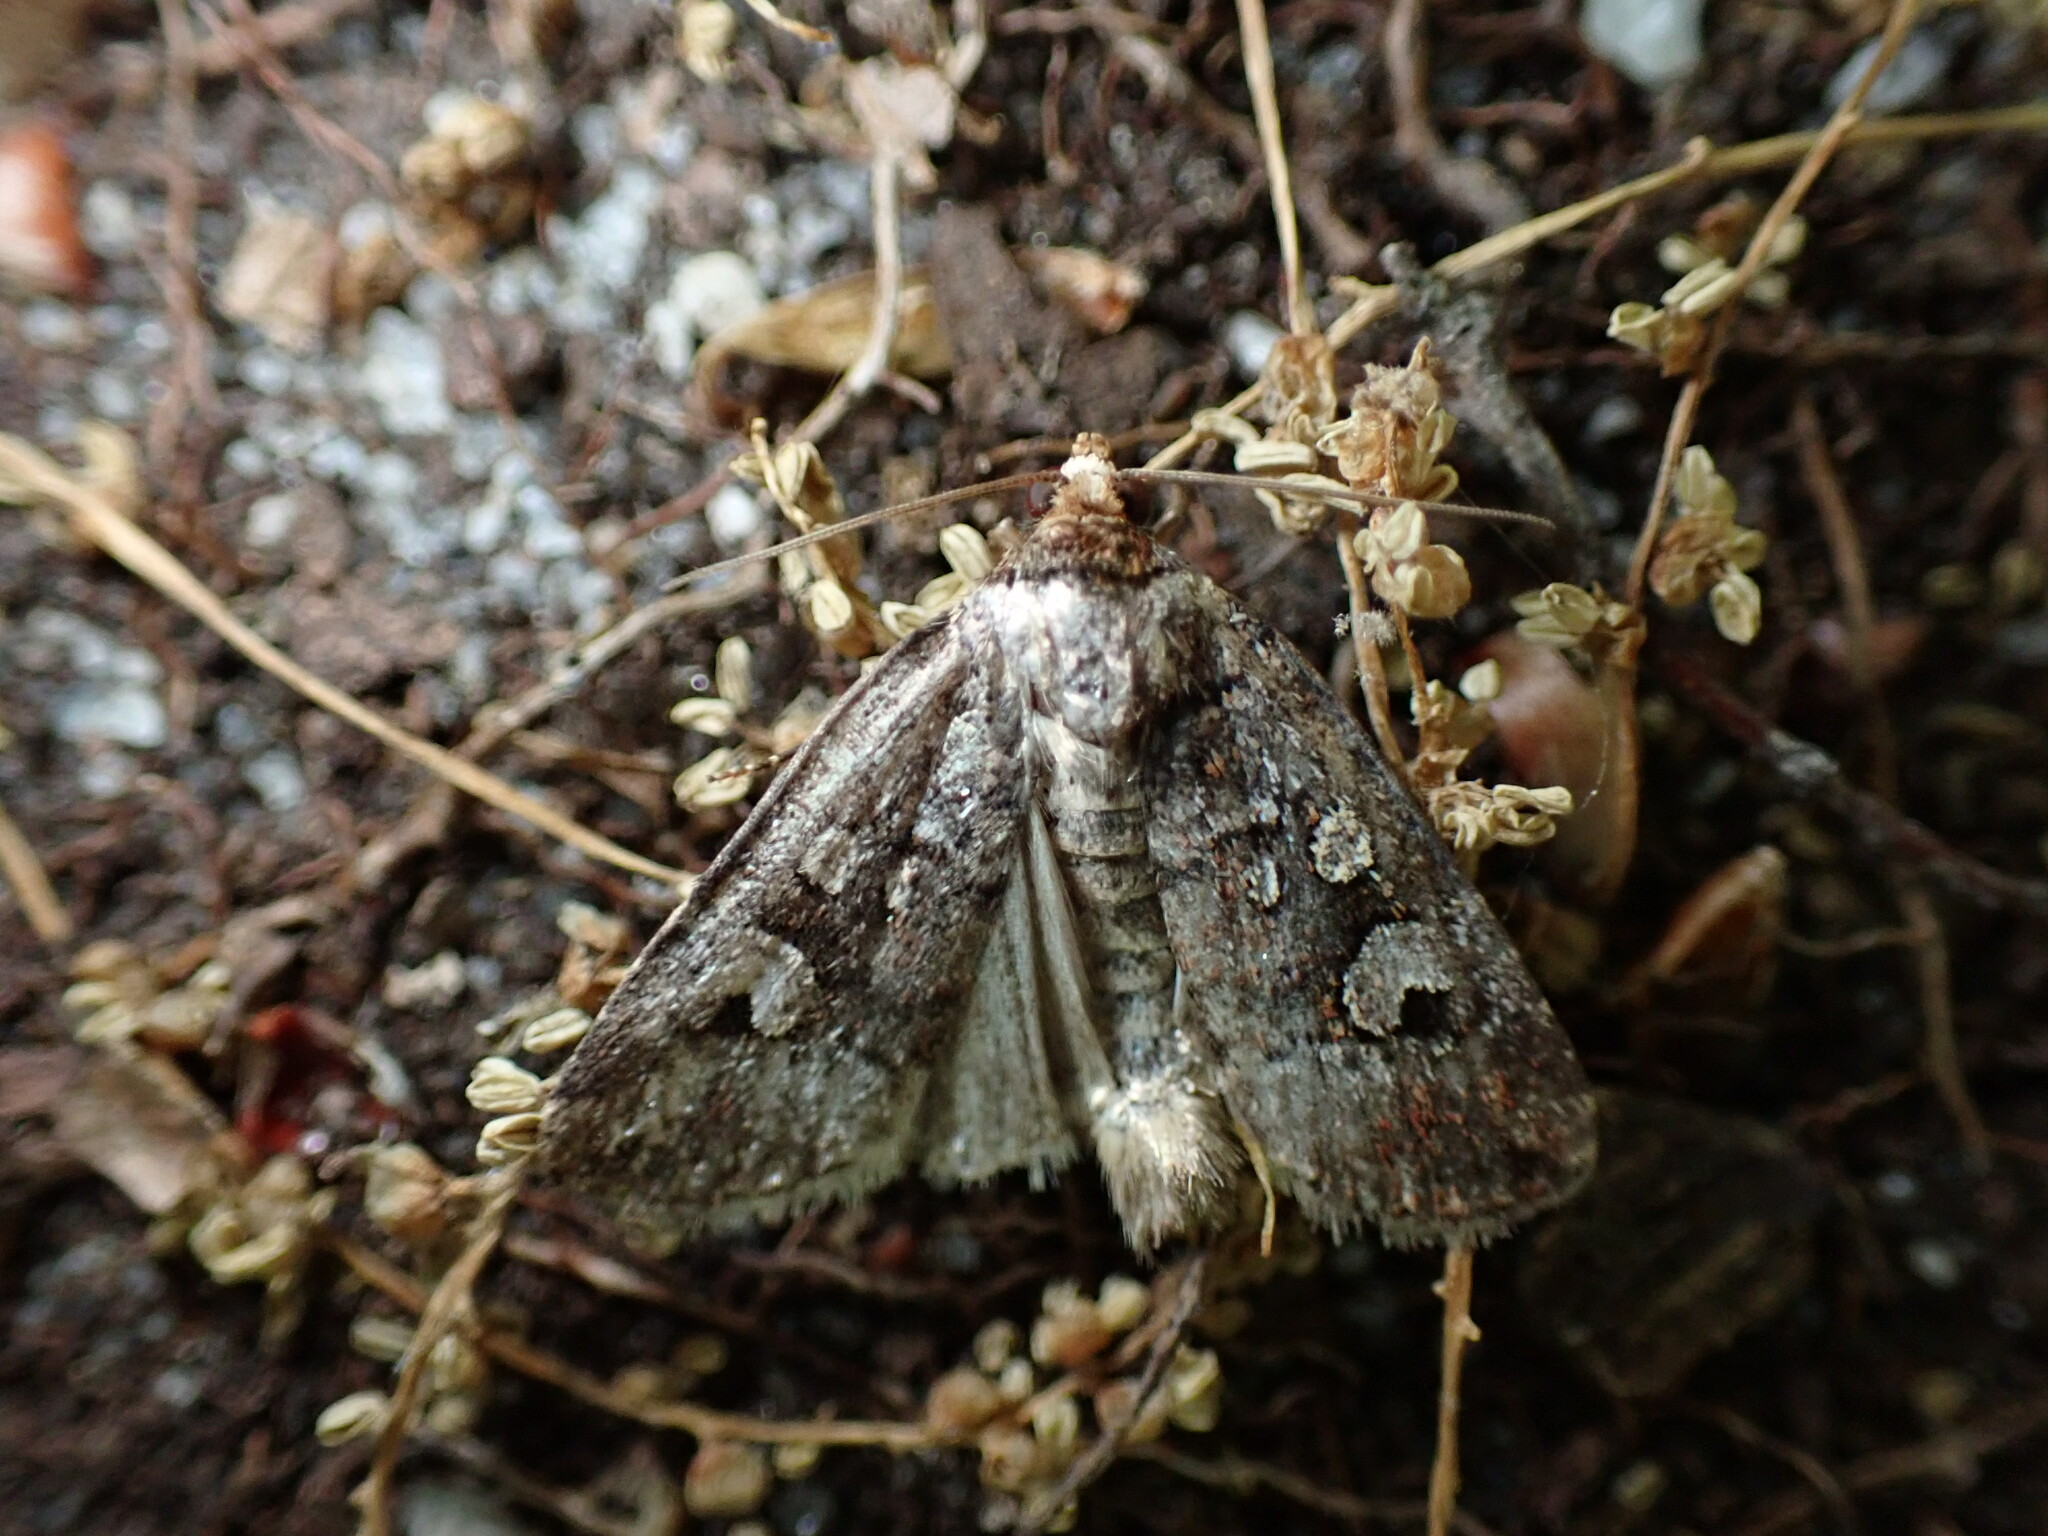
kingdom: Animalia
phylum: Arthropoda
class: Insecta
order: Lepidoptera
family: Noctuidae
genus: Elaphria
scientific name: Elaphria alapallida
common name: Pale-winged midget
